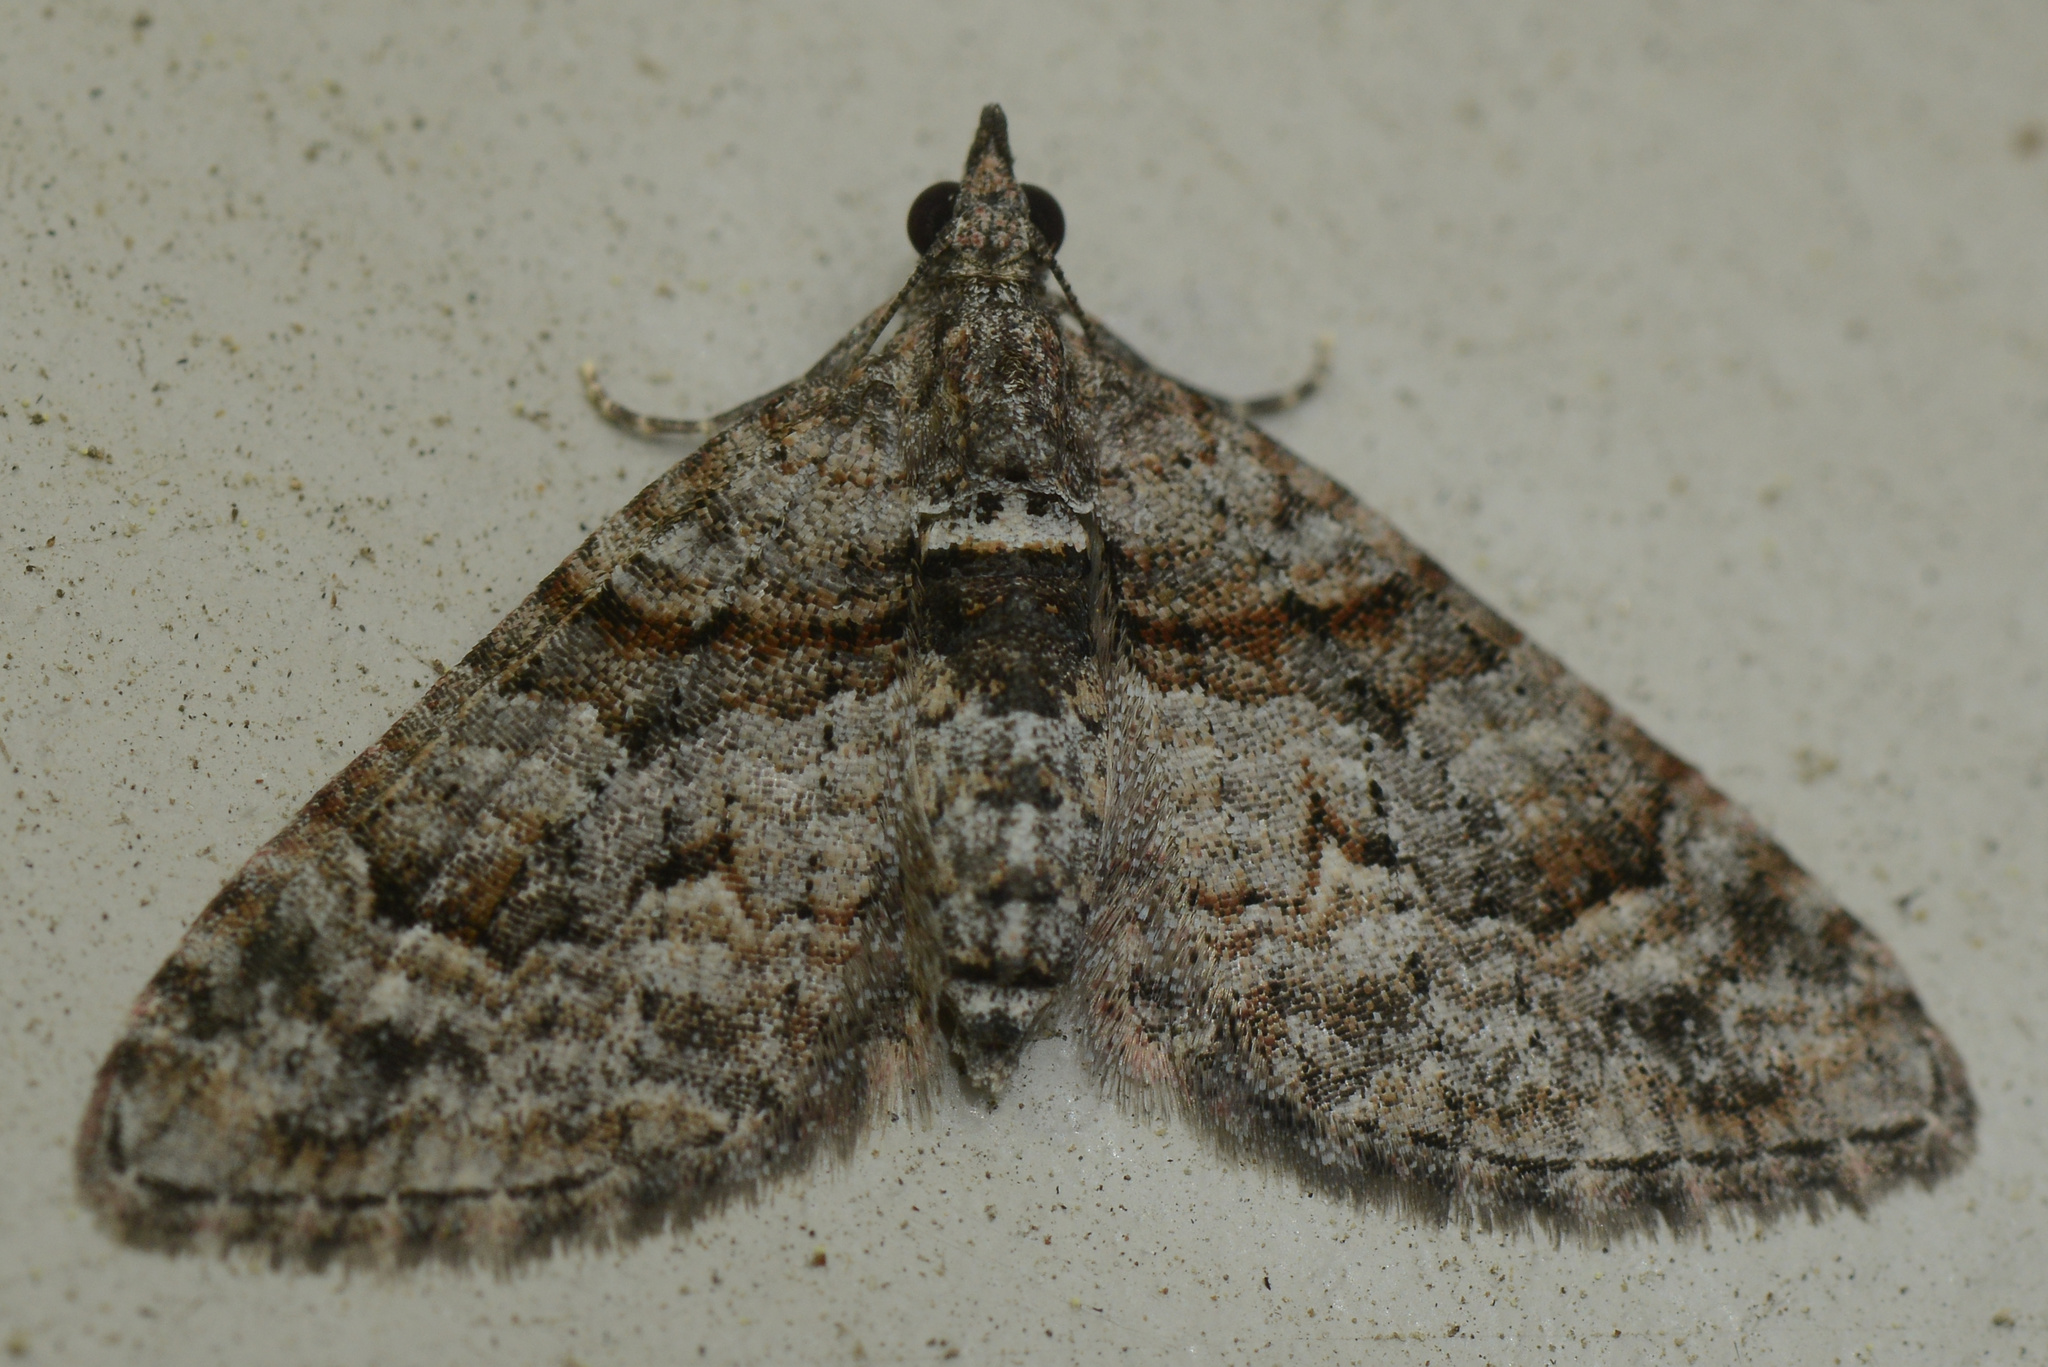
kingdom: Animalia
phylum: Arthropoda
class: Insecta
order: Lepidoptera
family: Geometridae
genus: Phrissogonus
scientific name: Phrissogonus laticostata
